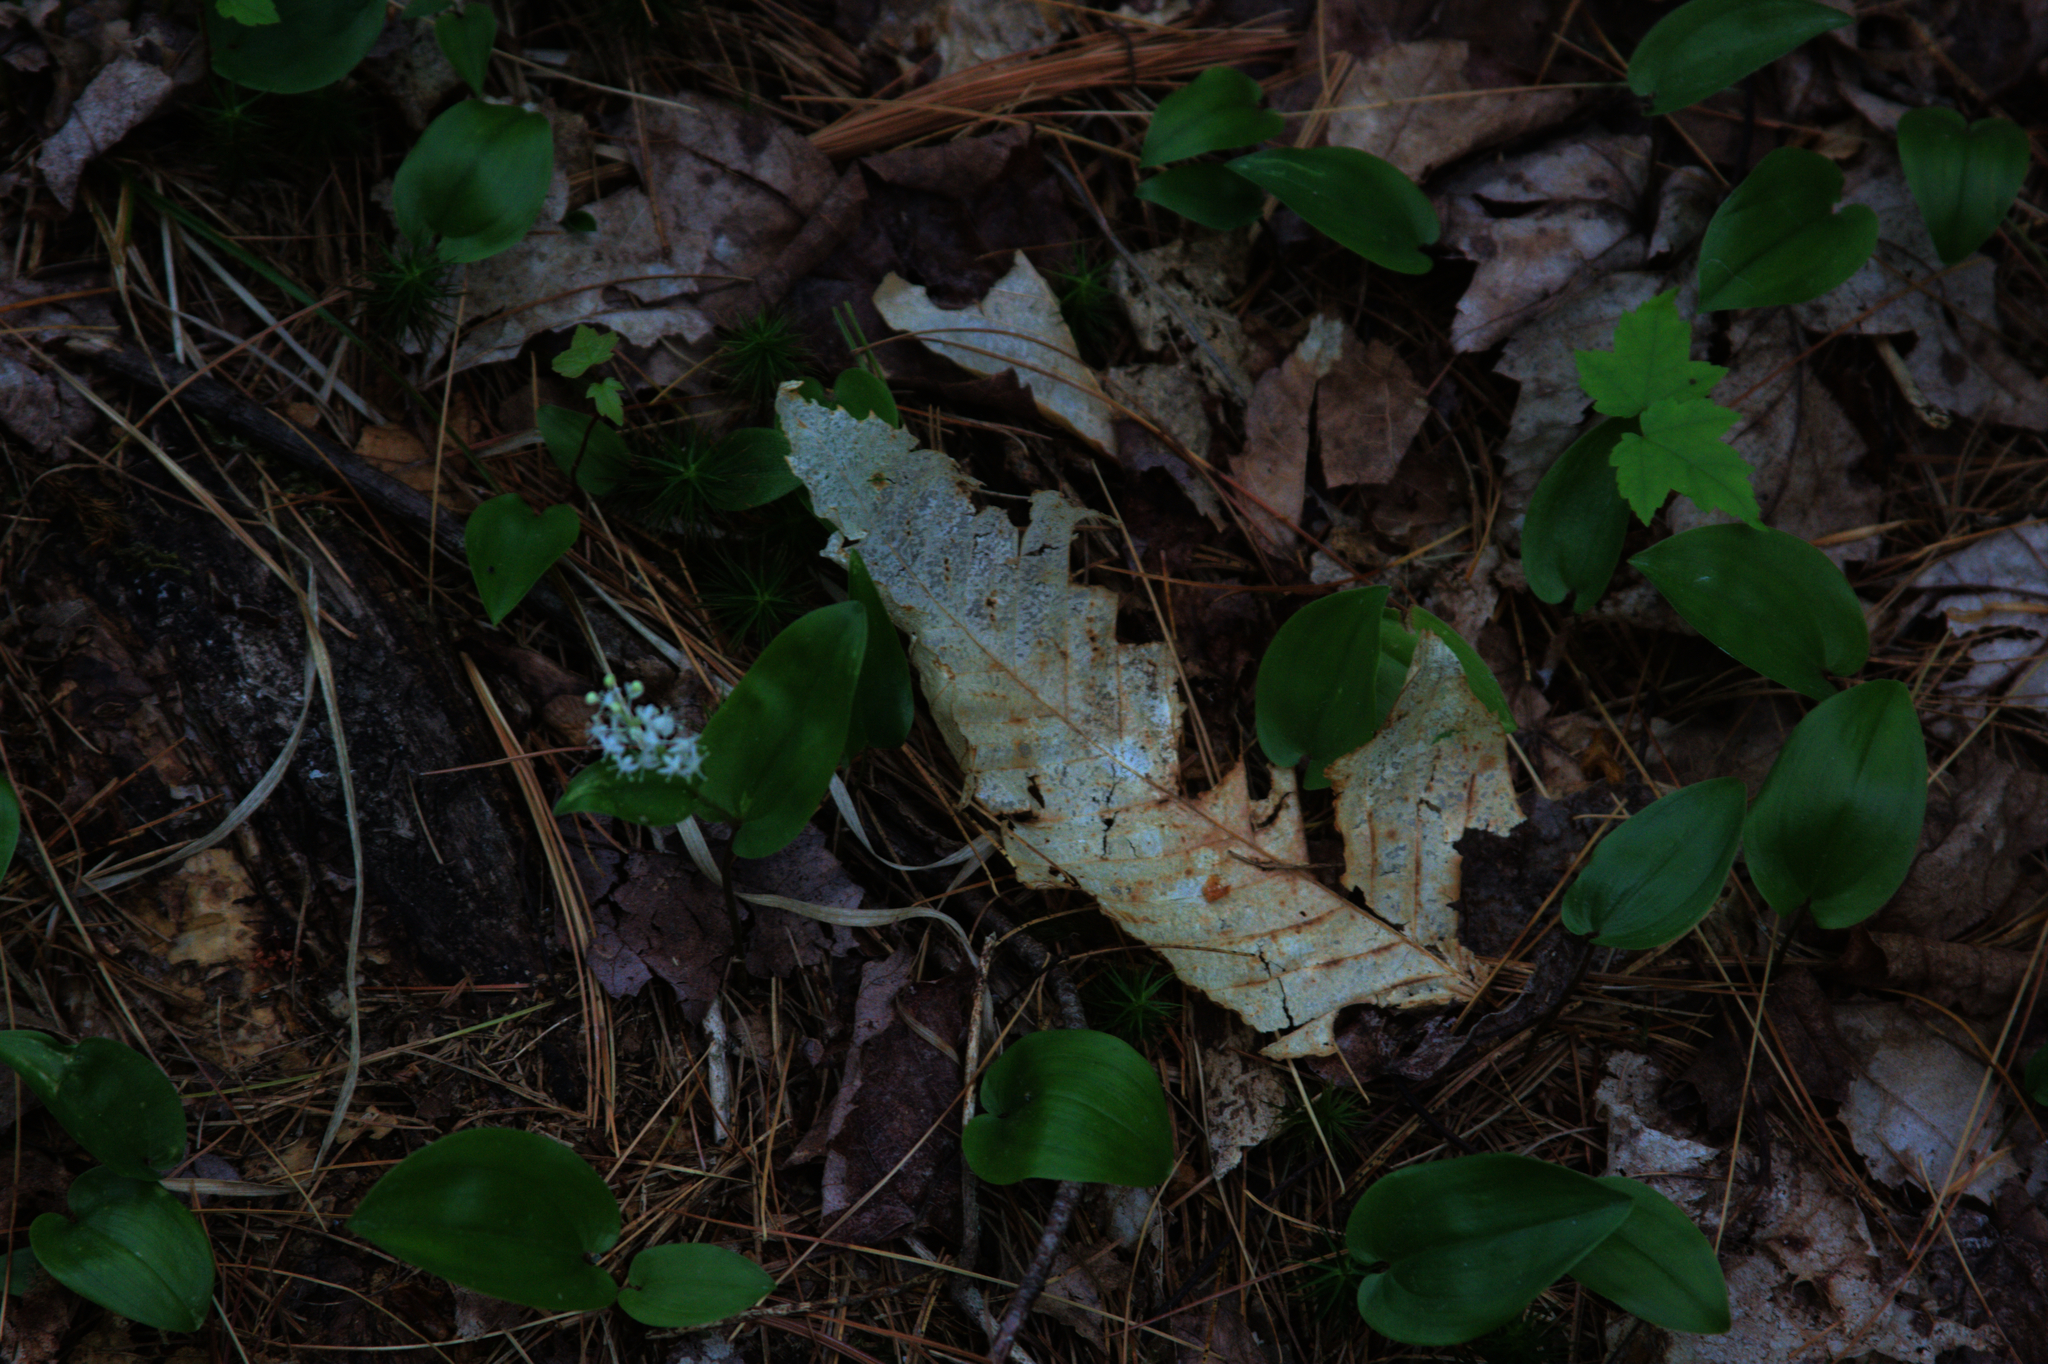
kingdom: Plantae
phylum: Tracheophyta
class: Liliopsida
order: Asparagales
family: Asparagaceae
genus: Maianthemum
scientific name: Maianthemum canadense
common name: False lily-of-the-valley
